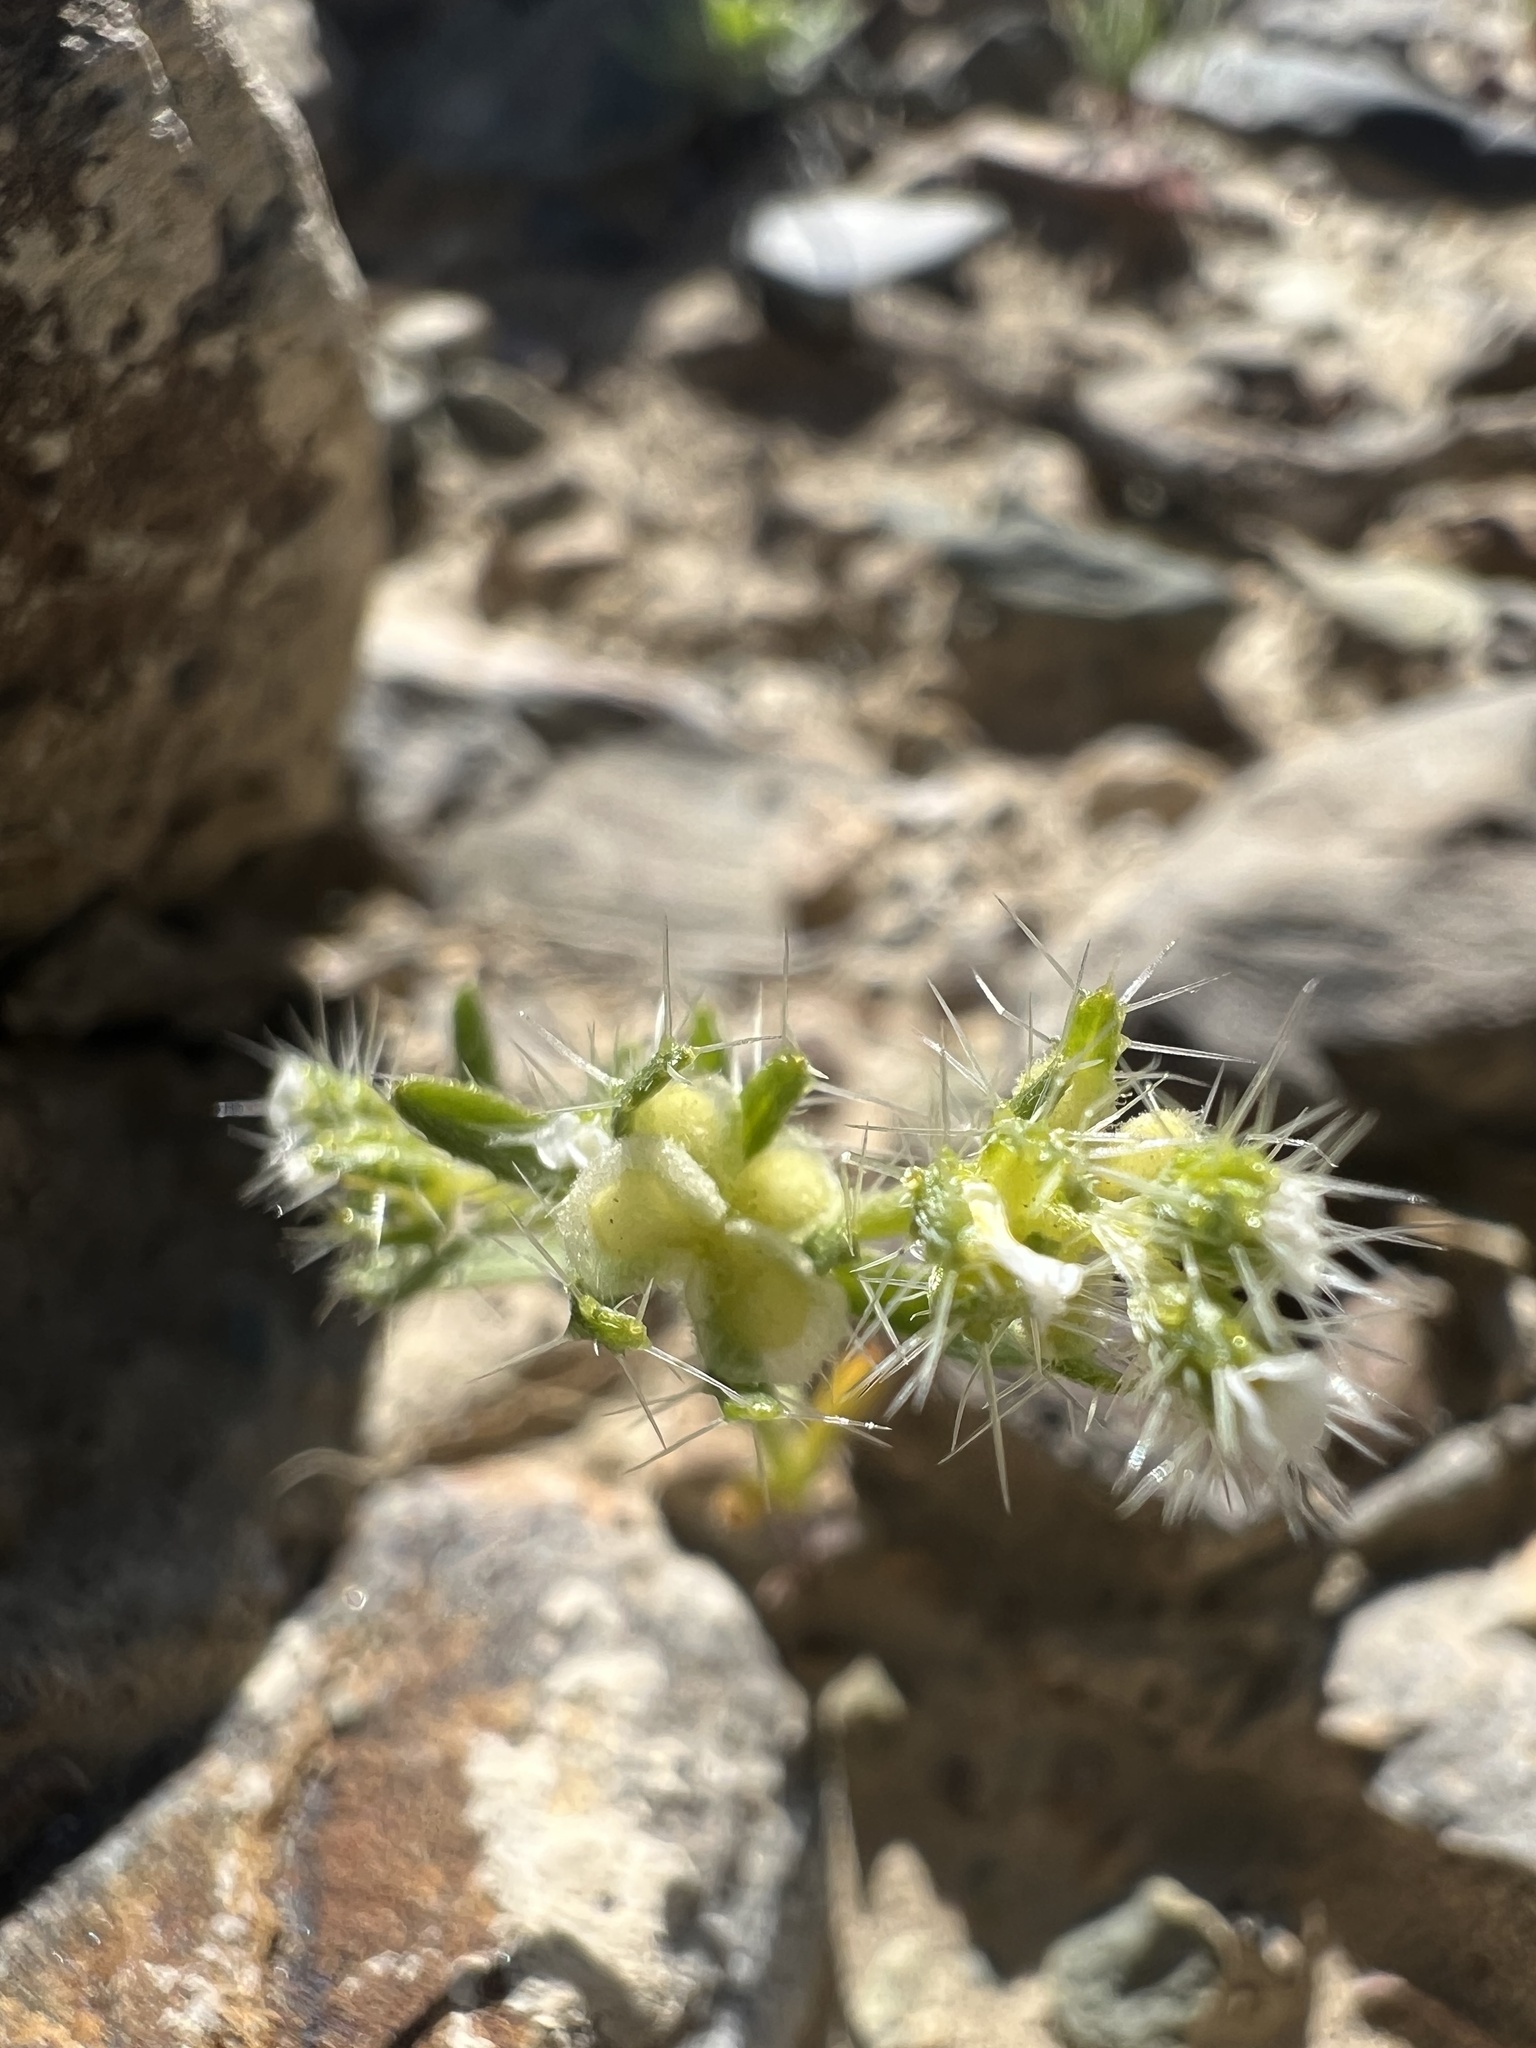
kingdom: Plantae
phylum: Tracheophyta
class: Magnoliopsida
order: Boraginales
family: Boraginaceae
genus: Pectocarya
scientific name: Pectocarya setosa
